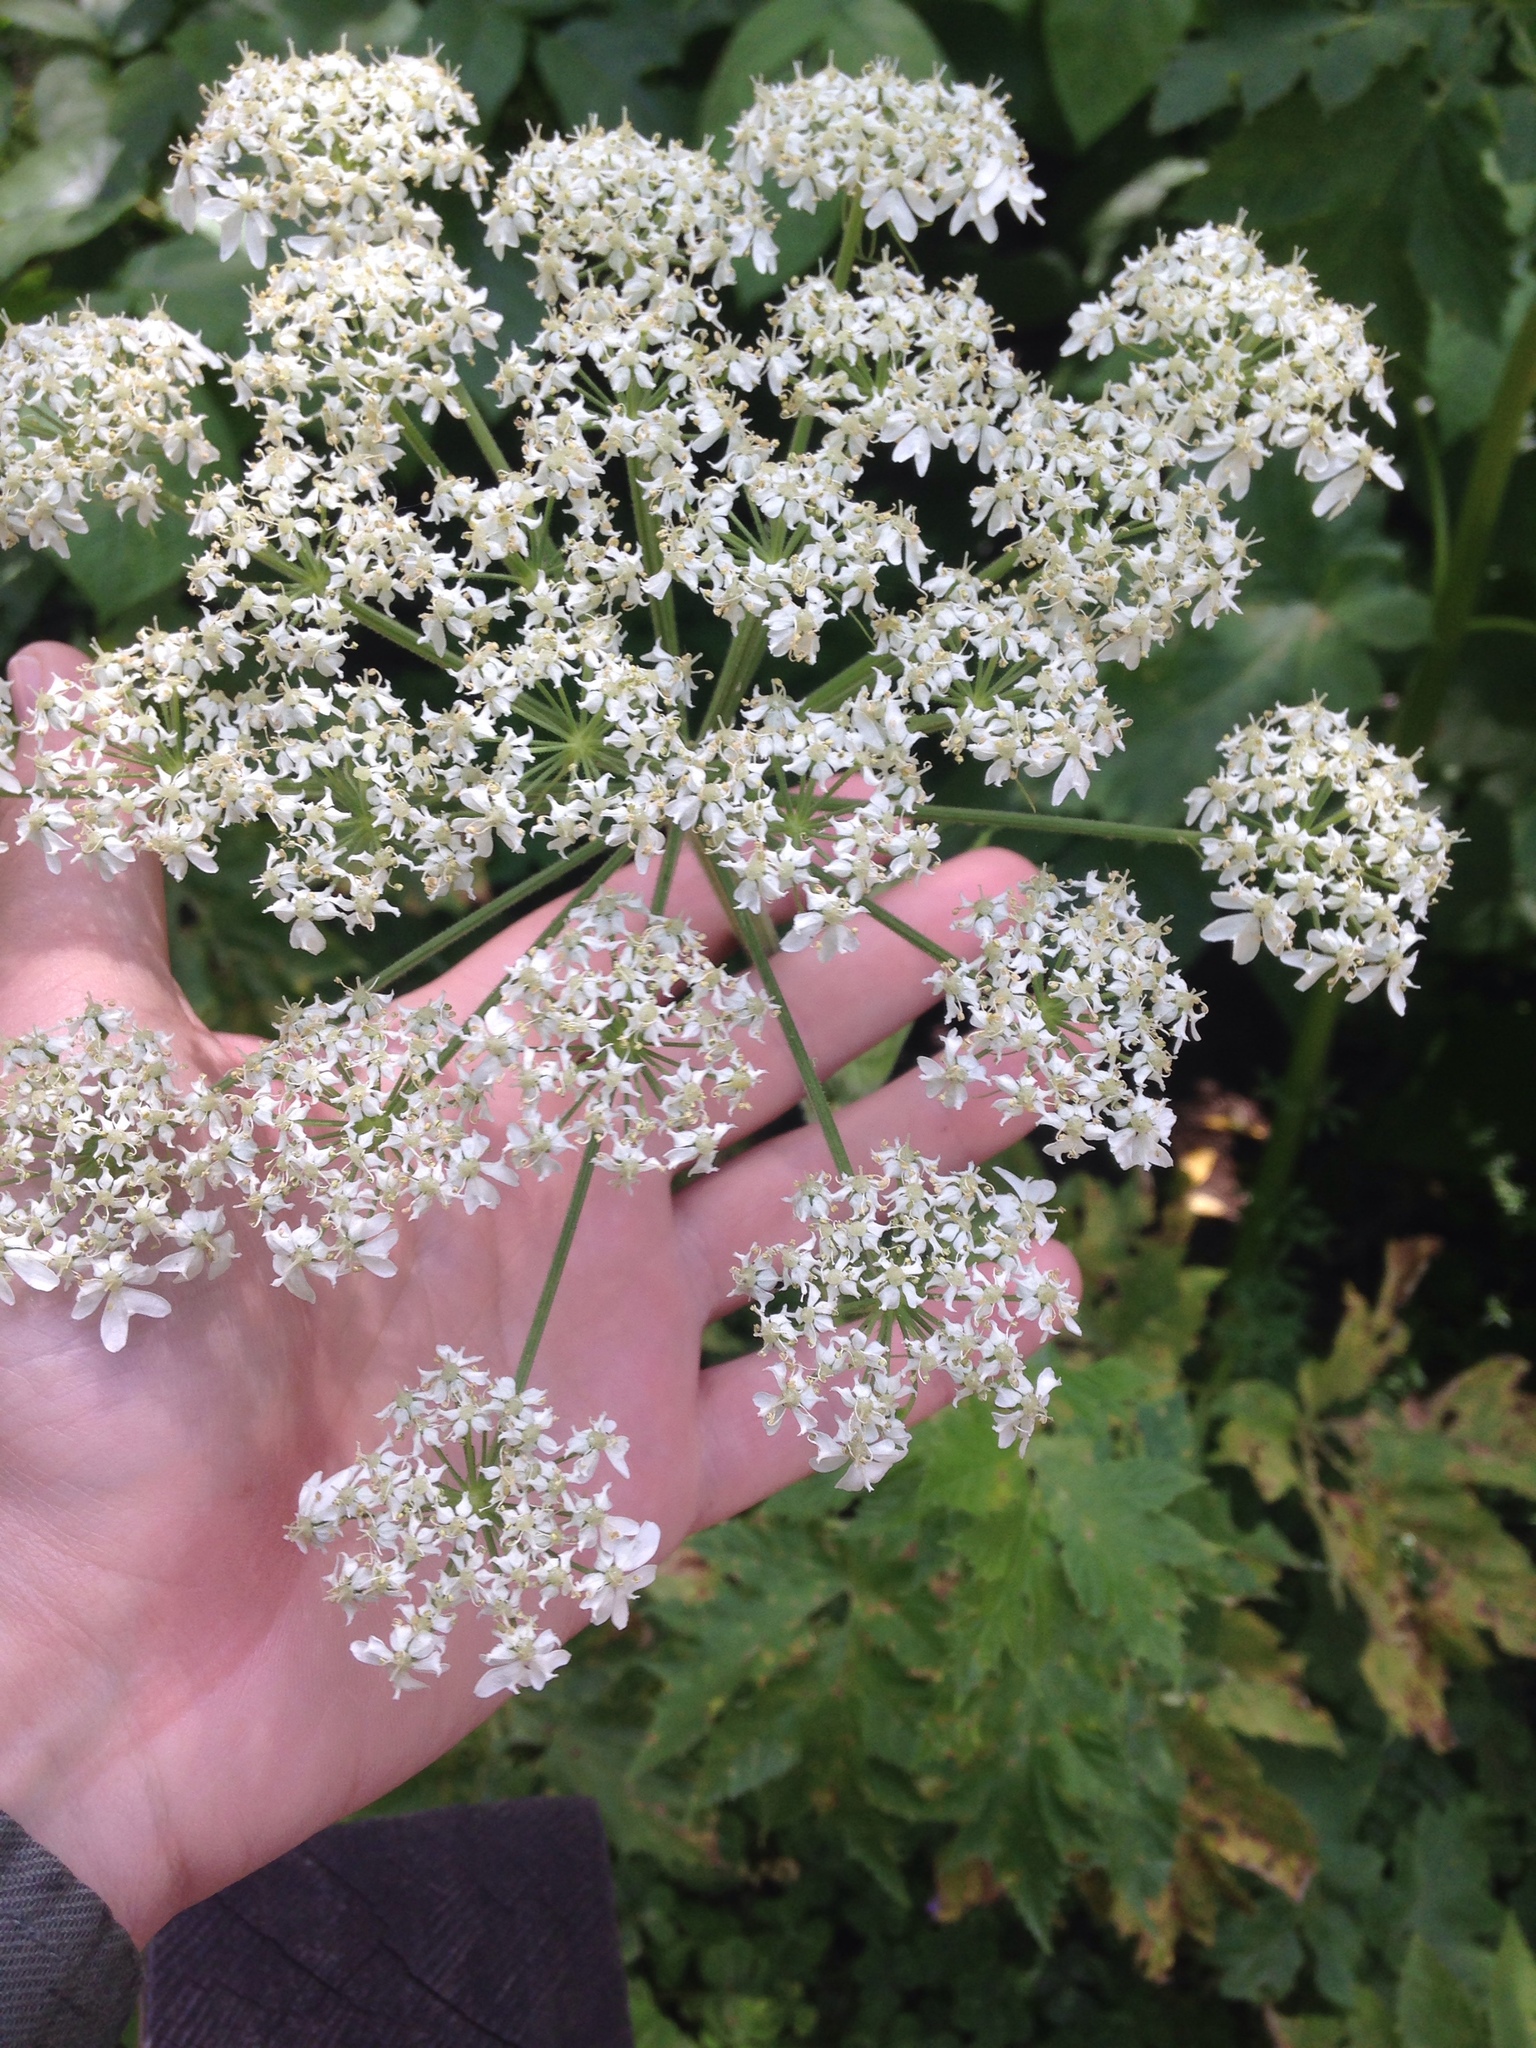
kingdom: Plantae
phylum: Tracheophyta
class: Magnoliopsida
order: Apiales
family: Apiaceae
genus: Heracleum
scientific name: Heracleum maximum
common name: American cow parsnip
